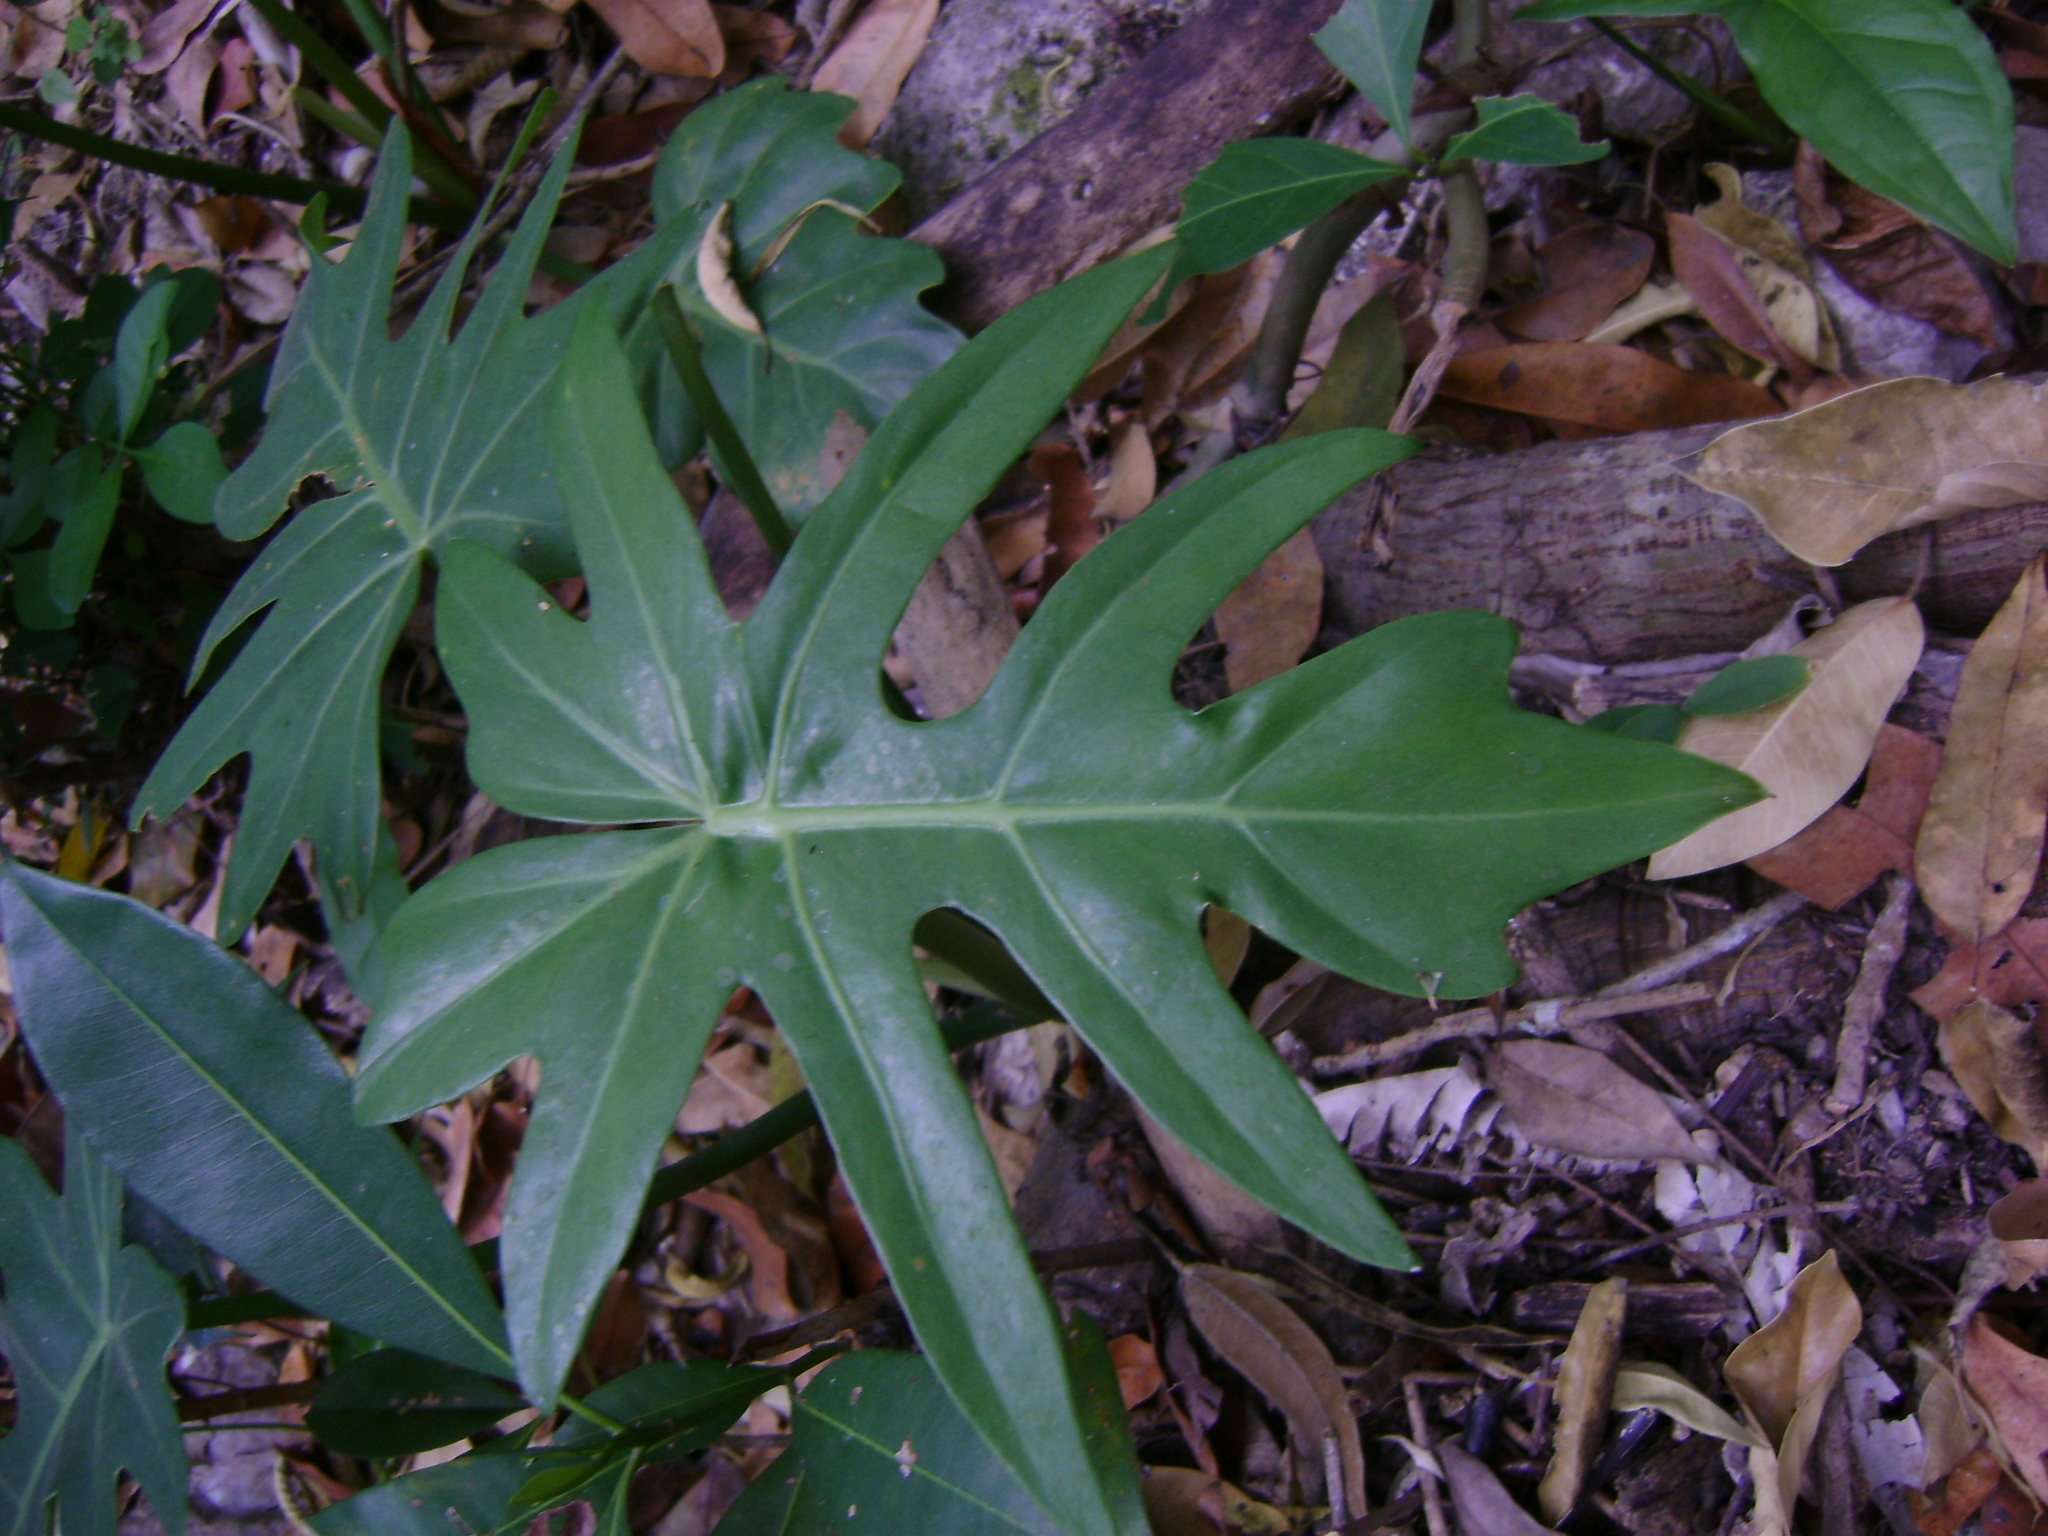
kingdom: Plantae
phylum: Tracheophyta
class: Liliopsida
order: Alismatales
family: Araceae
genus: Philodendron
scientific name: Philodendron radiatum
